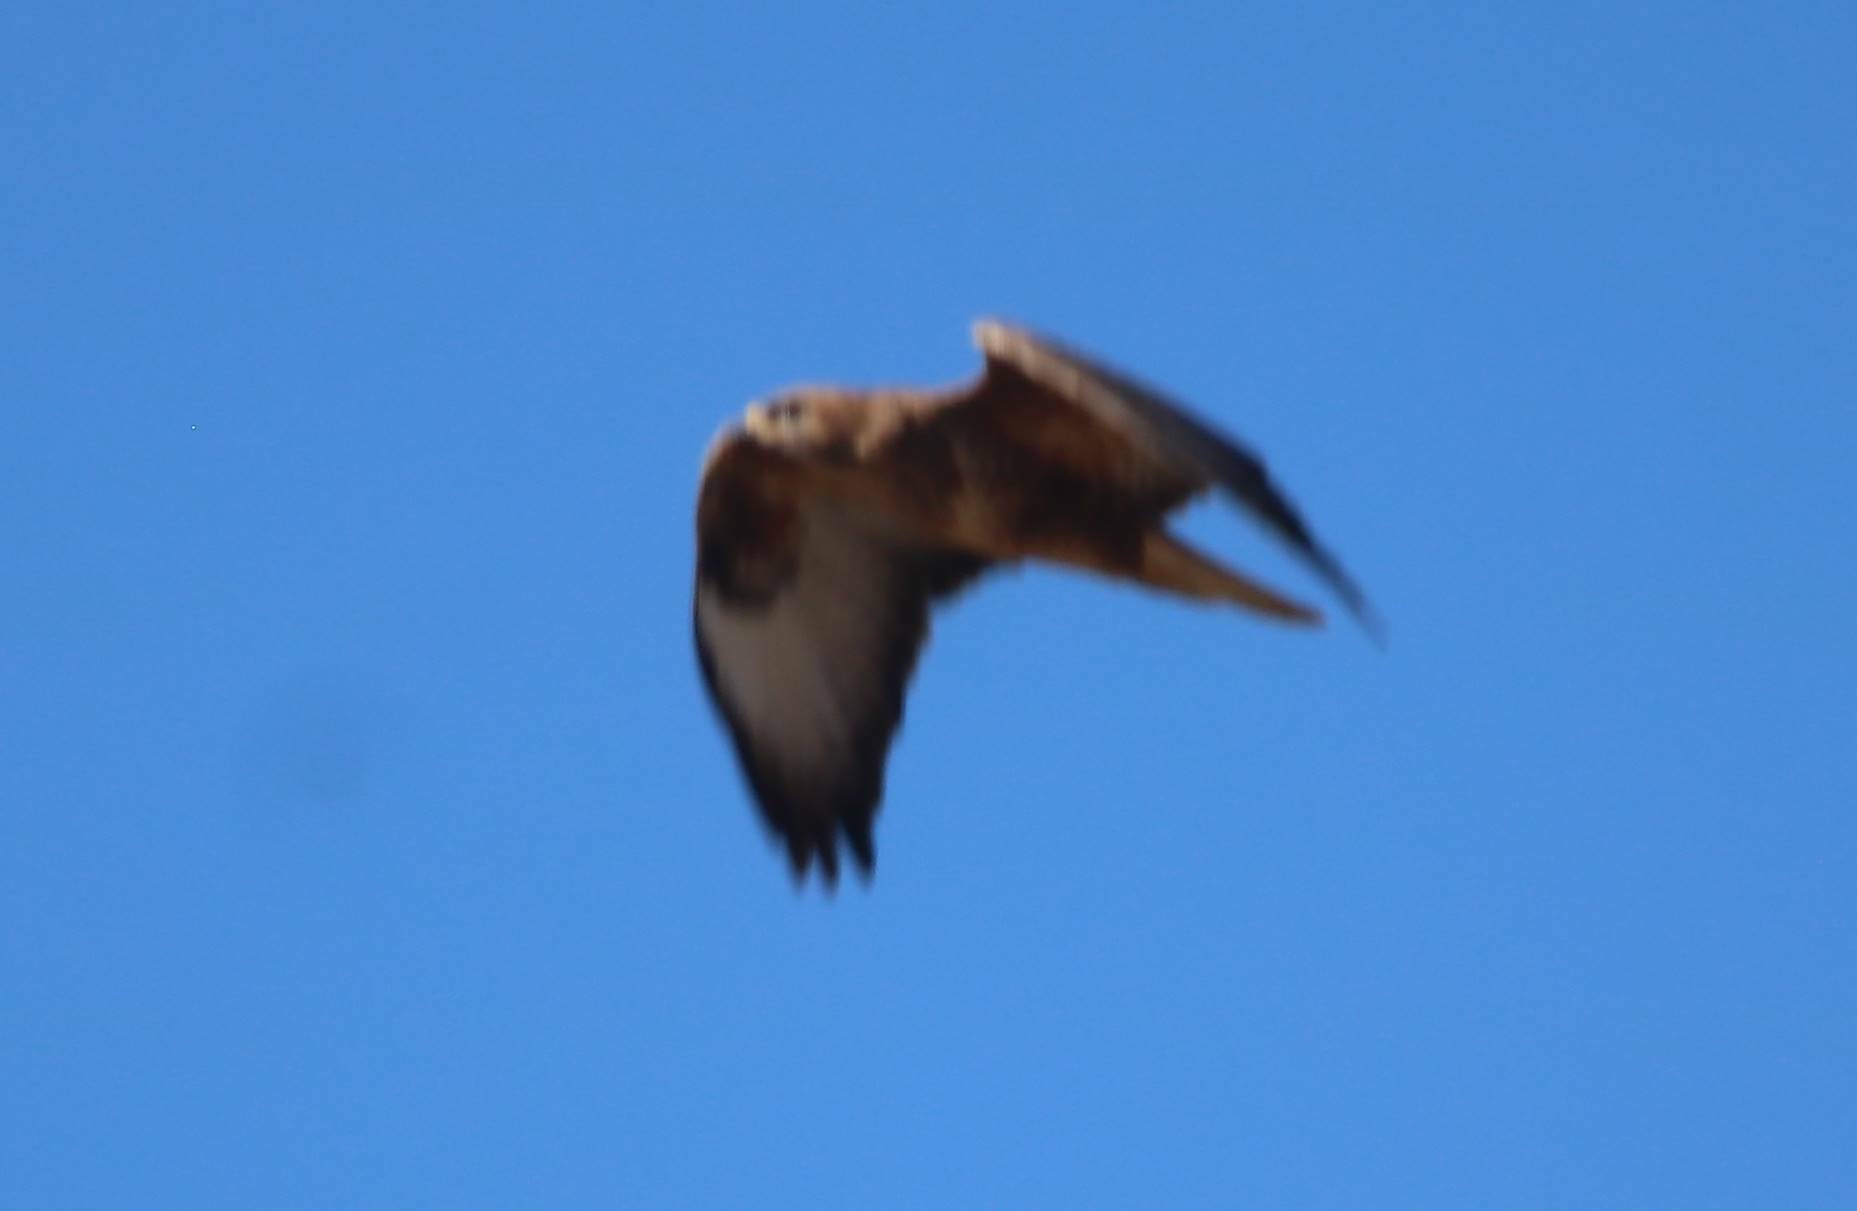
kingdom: Animalia
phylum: Chordata
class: Aves
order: Accipitriformes
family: Accipitridae
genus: Buteo
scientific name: Buteo rufinus
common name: Long-legged buzzard
